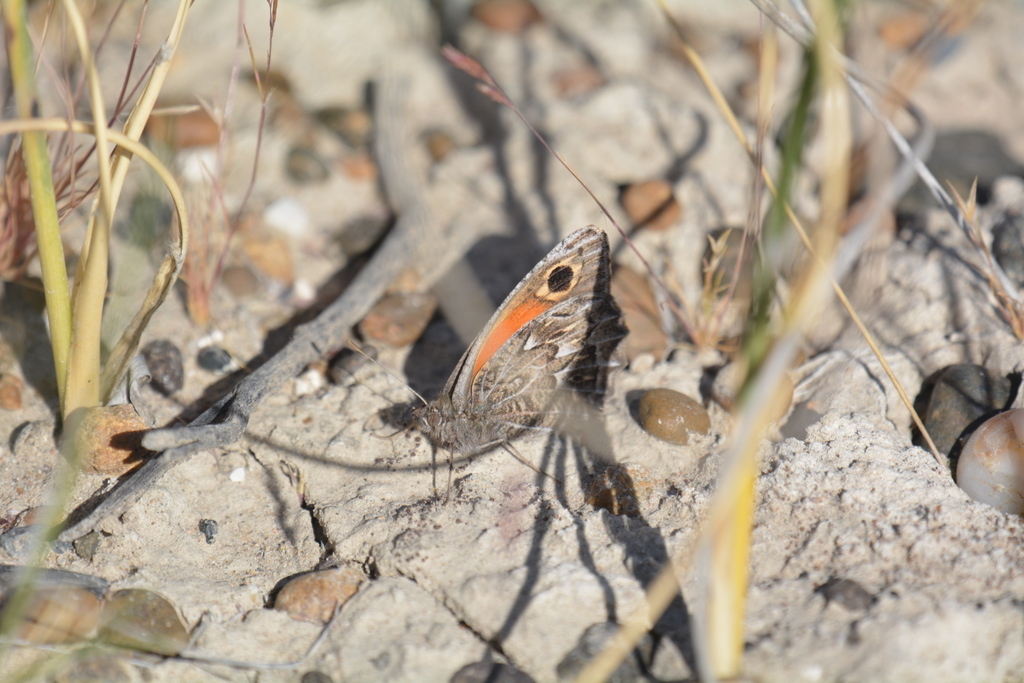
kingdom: Animalia
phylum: Arthropoda
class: Insecta
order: Lepidoptera
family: Nymphalidae
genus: Argyrophorus
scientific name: Argyrophorus
